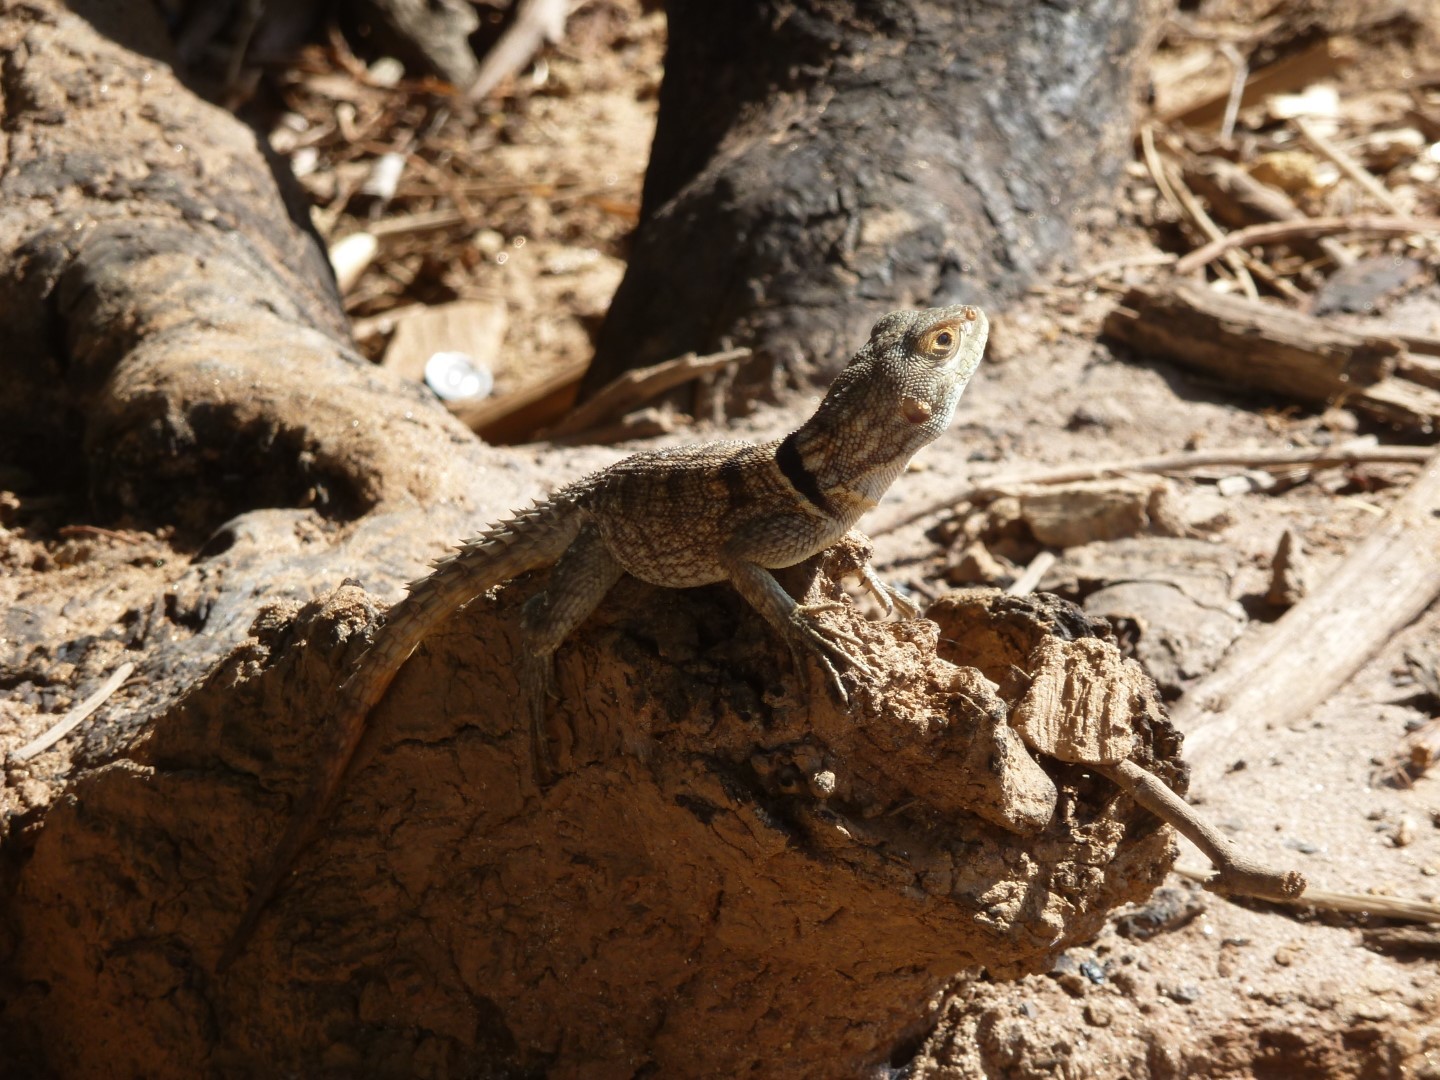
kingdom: Animalia
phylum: Chordata
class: Squamata
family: Opluridae
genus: Oplurus
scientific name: Oplurus cuvieri
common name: Cuvier's madagascar swift
